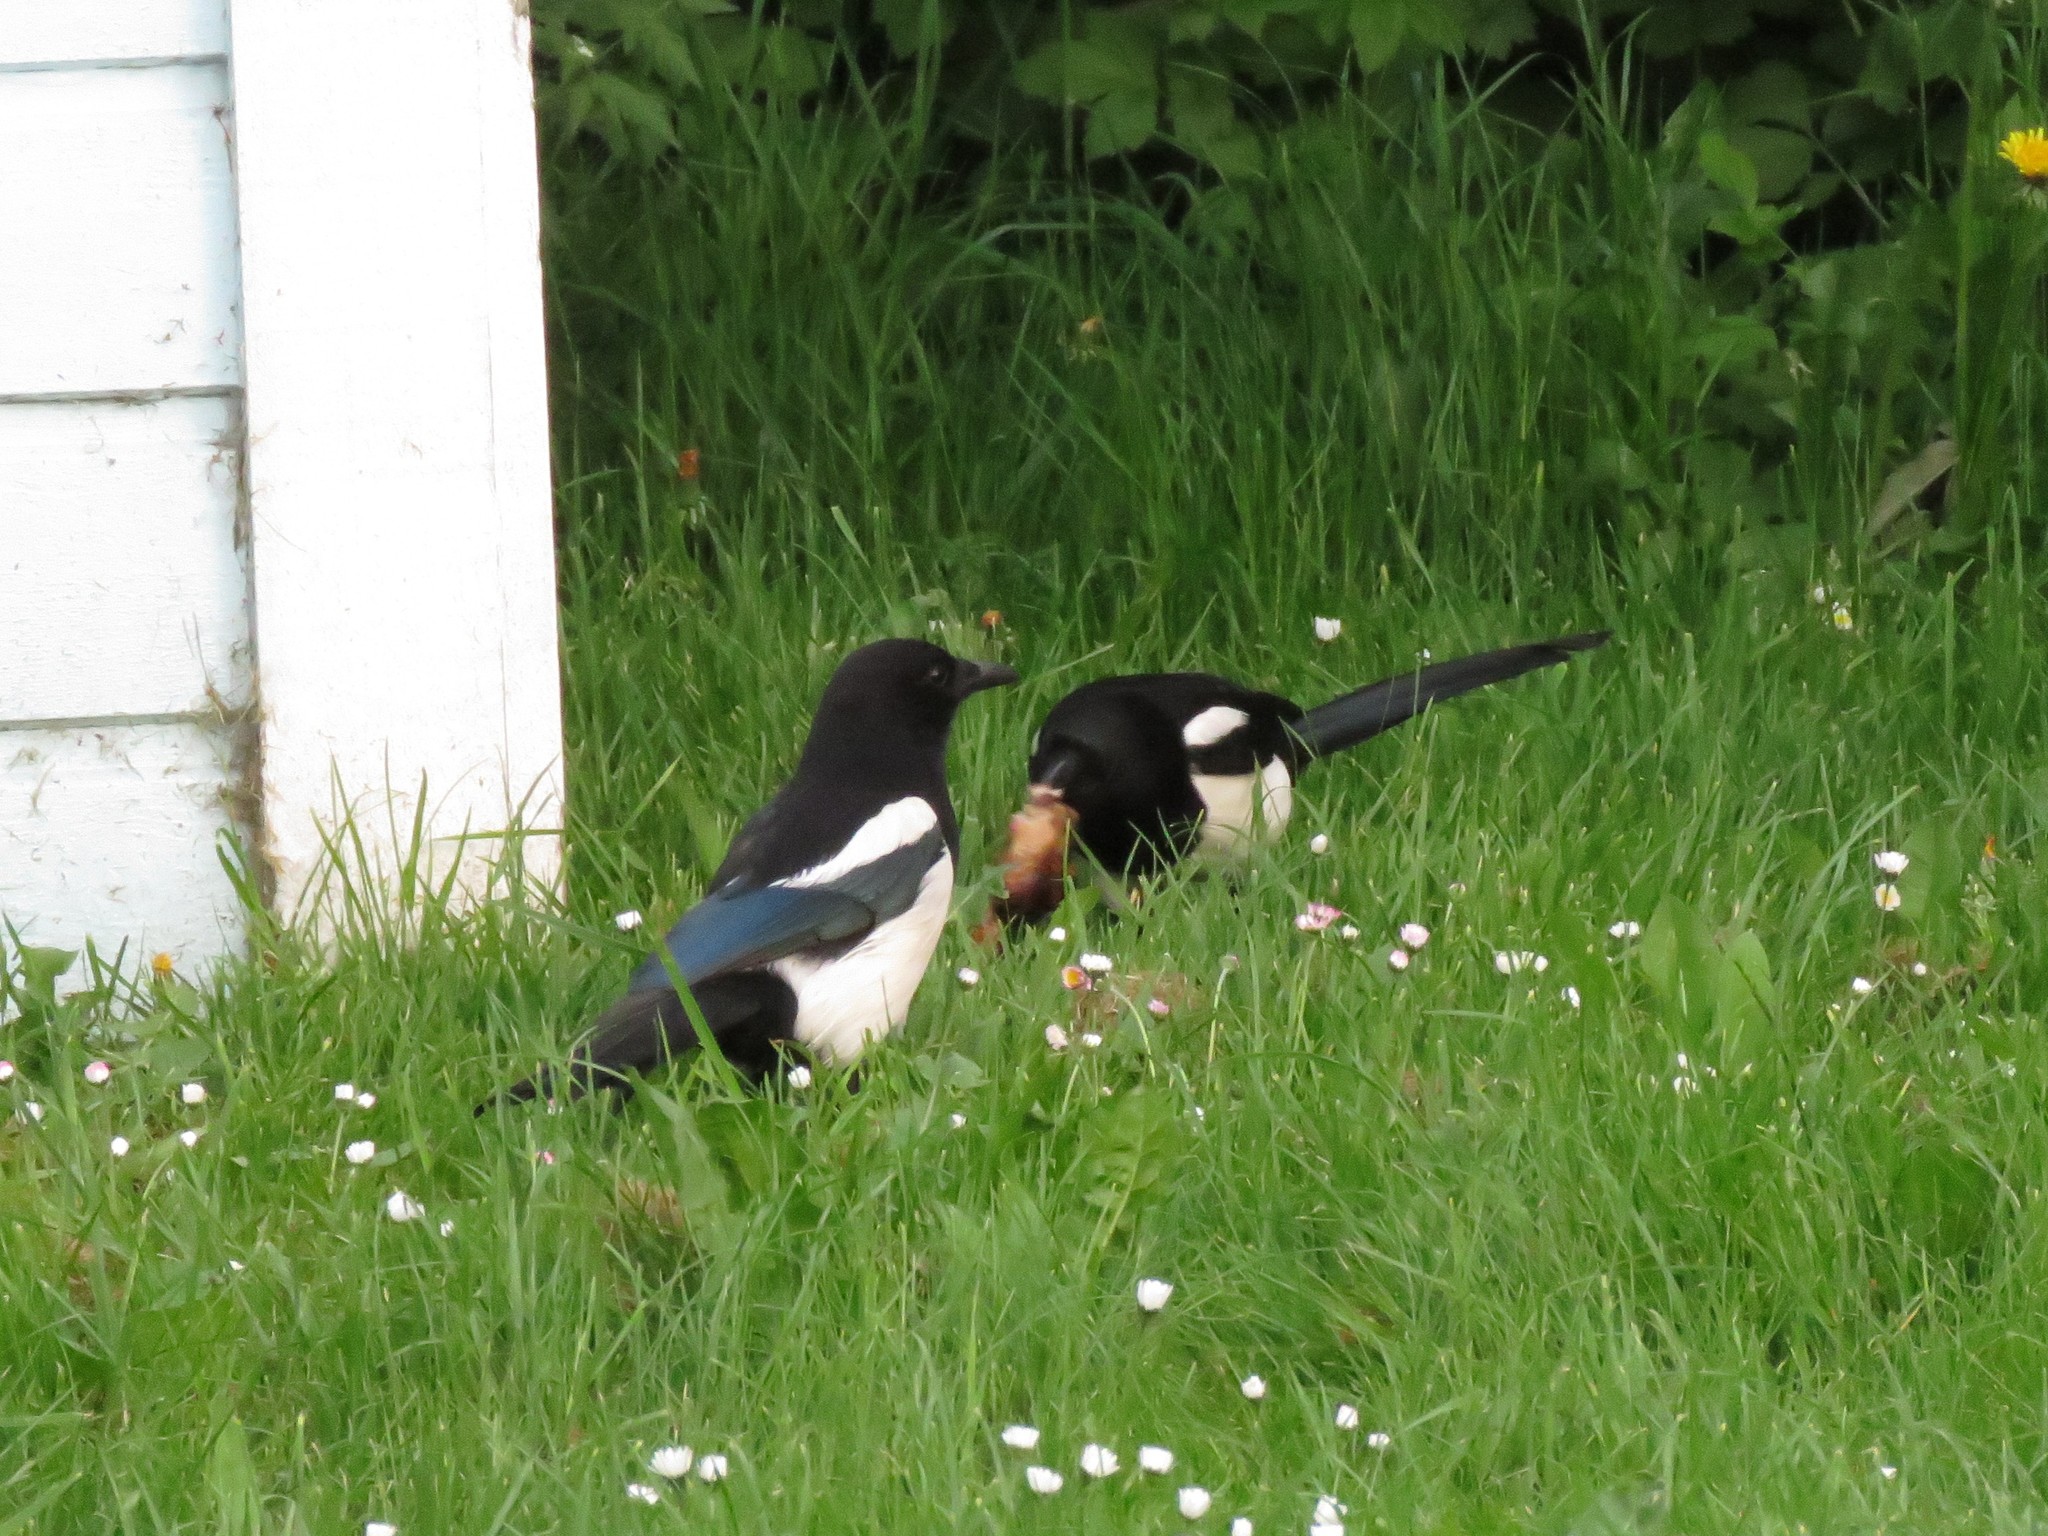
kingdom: Animalia
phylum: Chordata
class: Aves
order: Passeriformes
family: Corvidae
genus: Pica
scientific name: Pica pica
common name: Eurasian magpie
